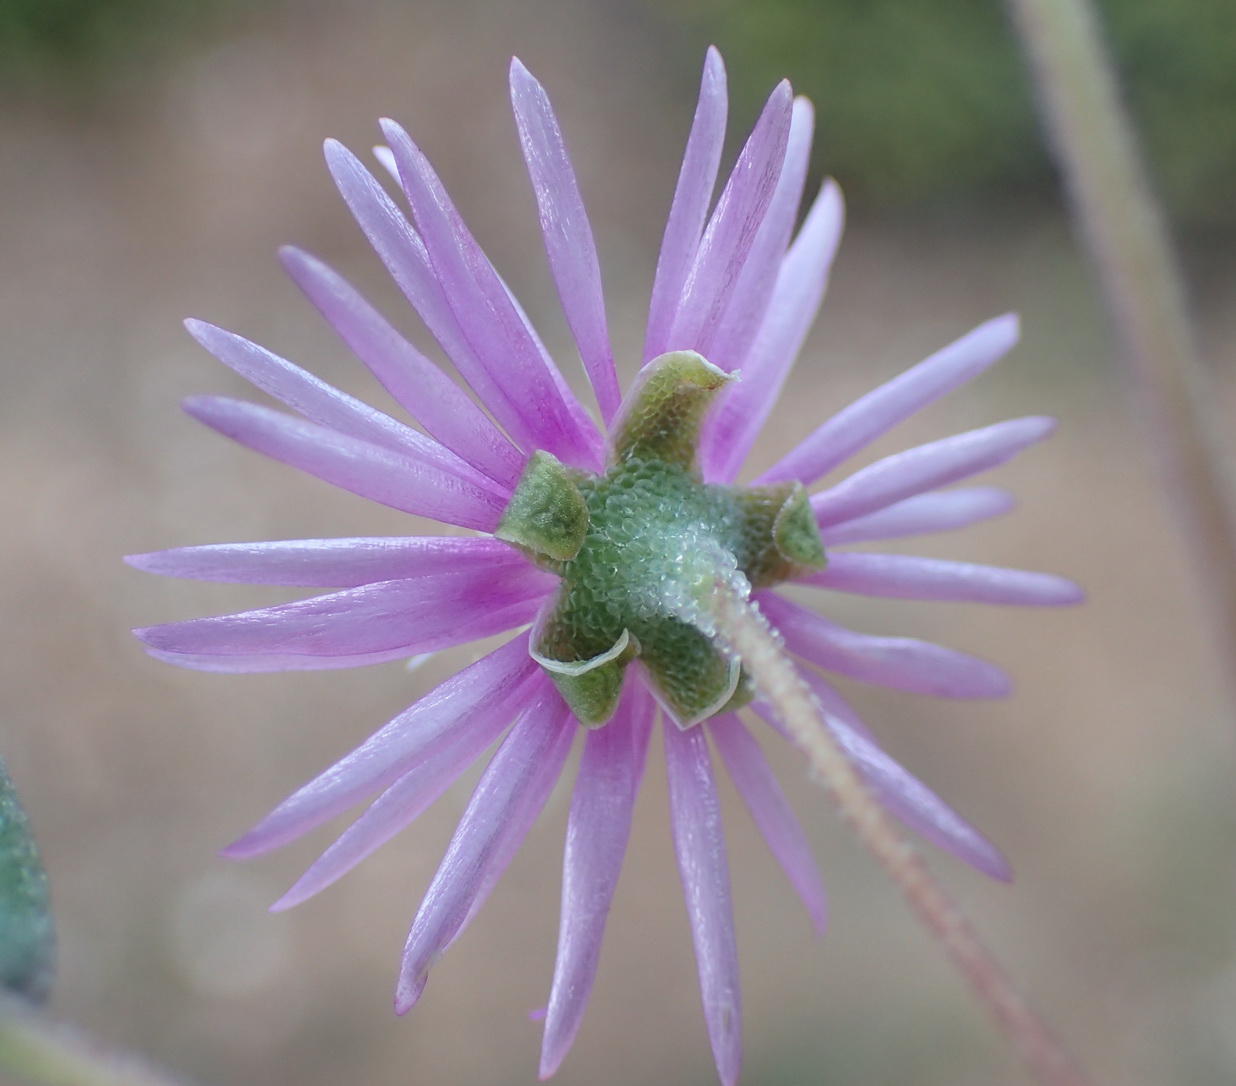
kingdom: Plantae
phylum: Tracheophyta
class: Magnoliopsida
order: Caryophyllales
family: Aizoaceae
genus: Drosanthemum
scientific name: Drosanthemum lique
